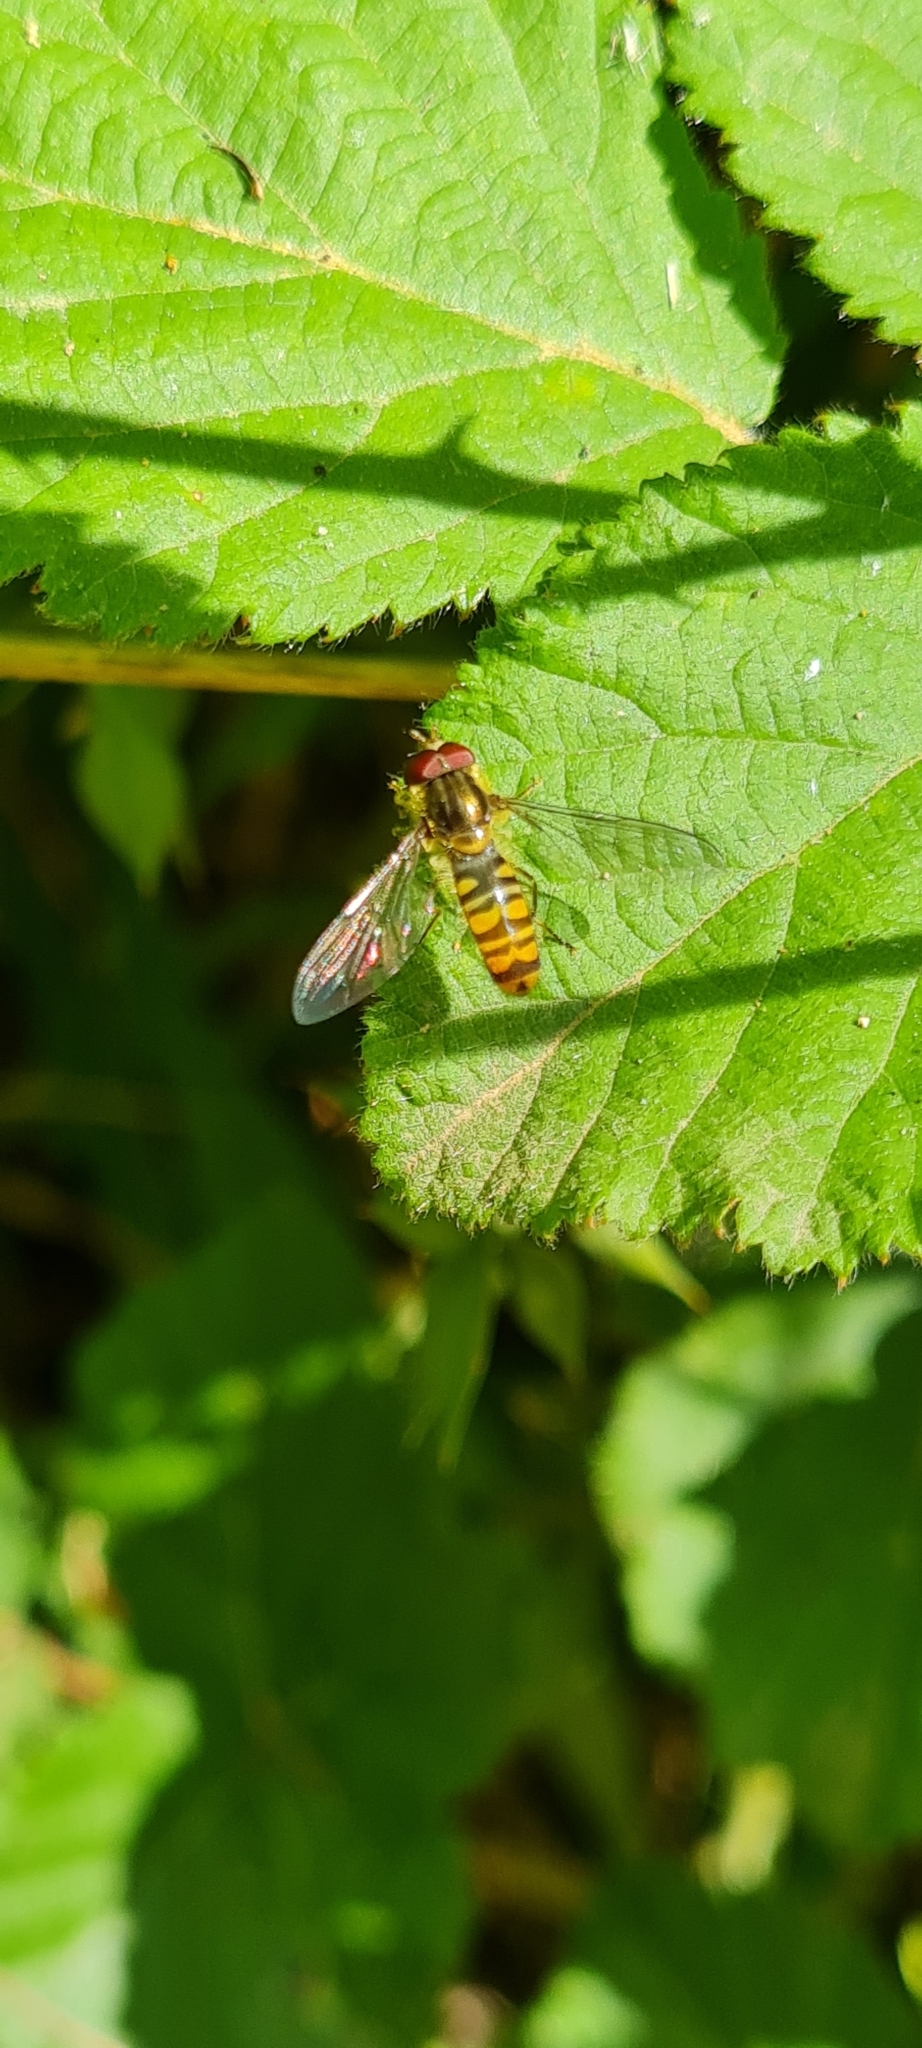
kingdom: Animalia
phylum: Arthropoda
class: Insecta
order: Diptera
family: Syrphidae
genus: Episyrphus
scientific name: Episyrphus balteatus
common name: Marmalade hoverfly
